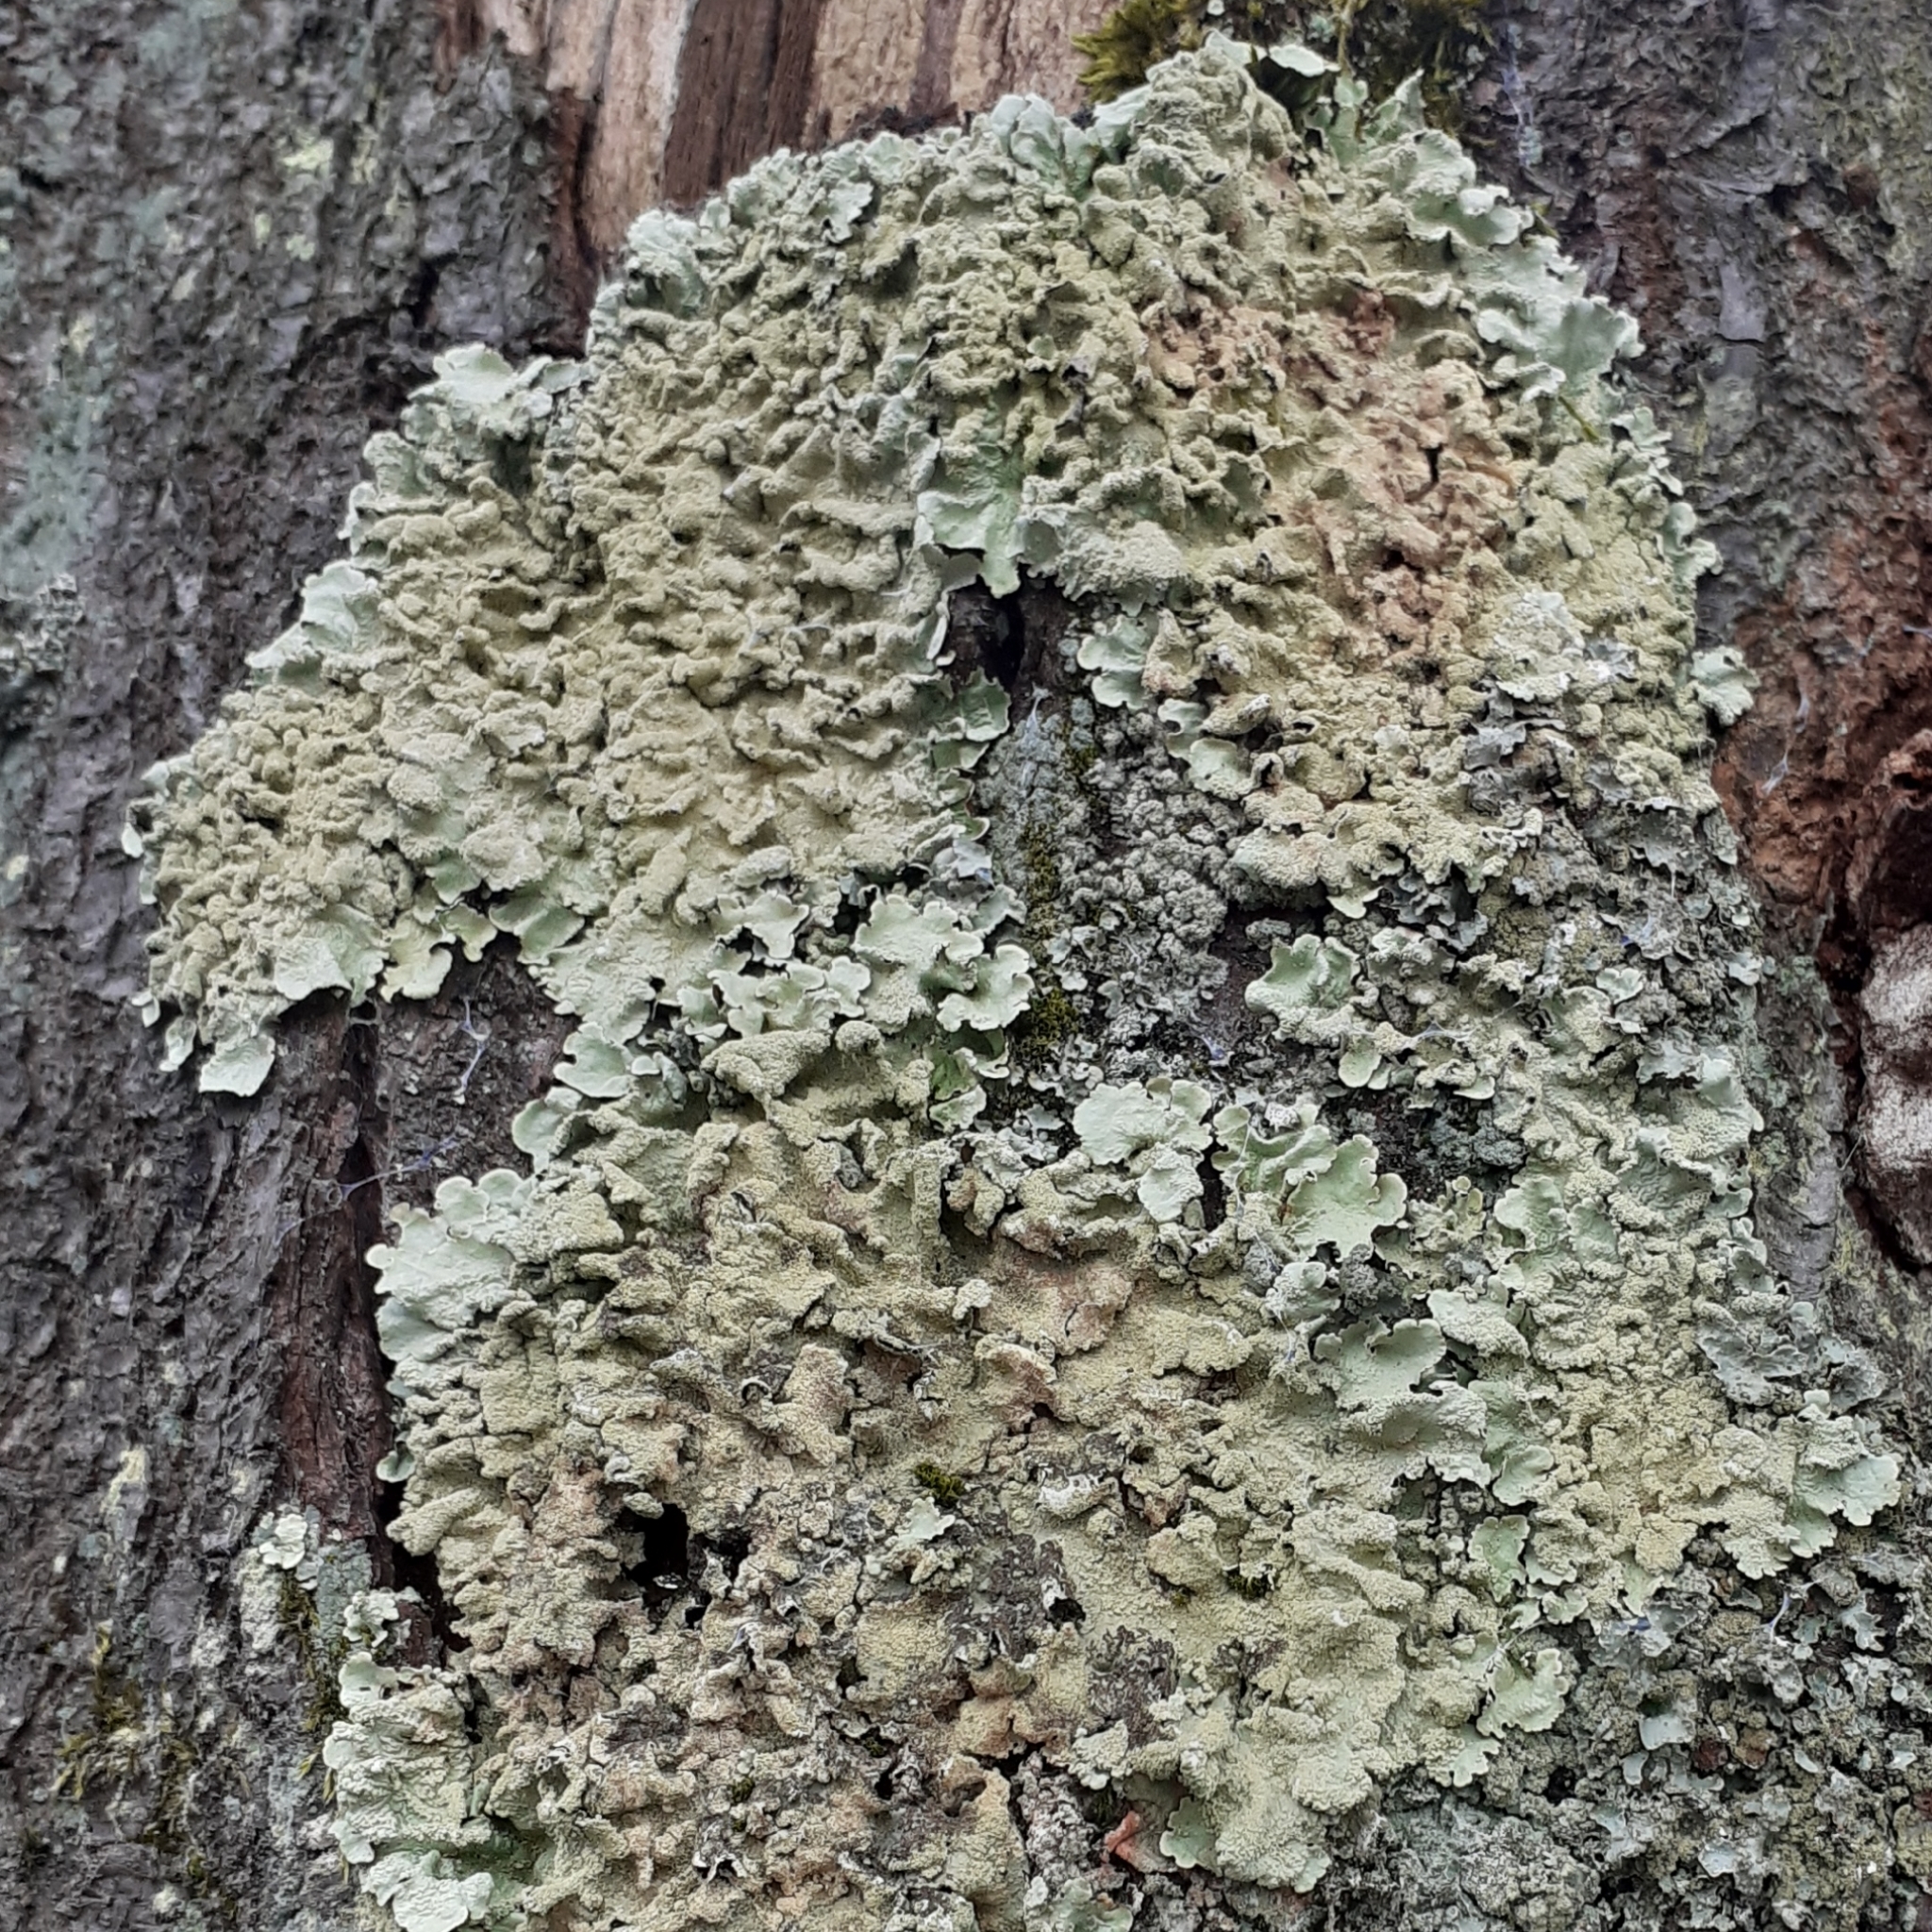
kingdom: Fungi
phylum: Ascomycota
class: Lecanoromycetes
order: Lecanorales
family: Parmeliaceae
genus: Flavoparmelia
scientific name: Flavoparmelia caperata
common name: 40-mile per hour lichen
